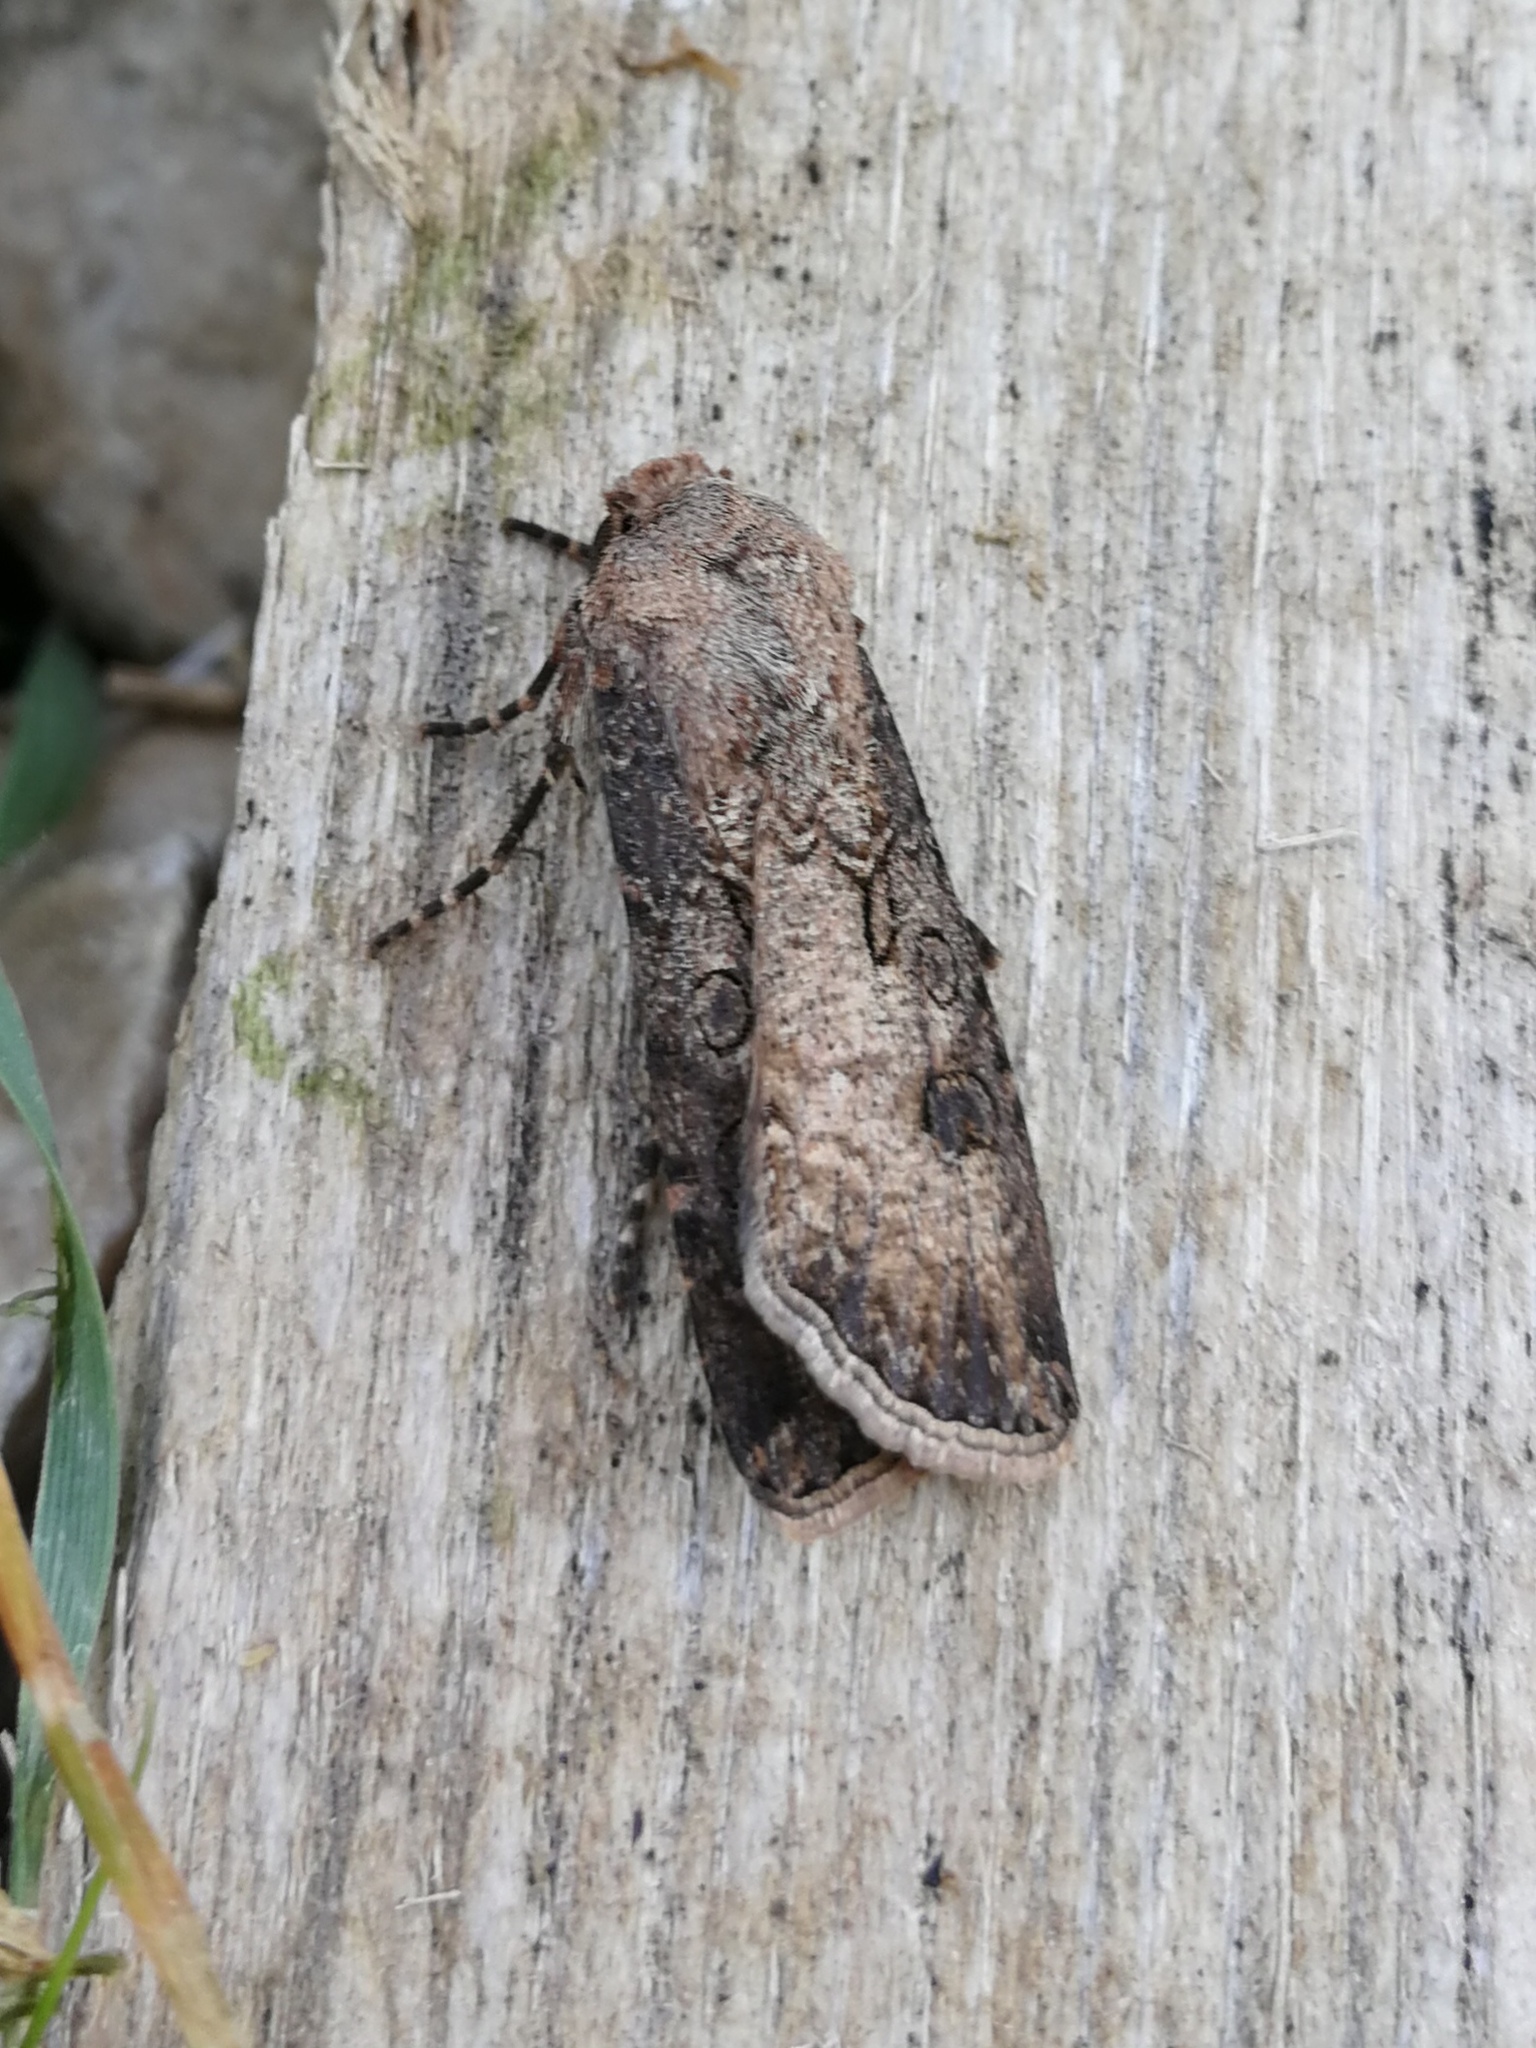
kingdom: Animalia
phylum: Arthropoda
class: Insecta
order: Lepidoptera
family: Noctuidae
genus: Agrotis
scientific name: Agrotis segetum
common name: Turnip moth
